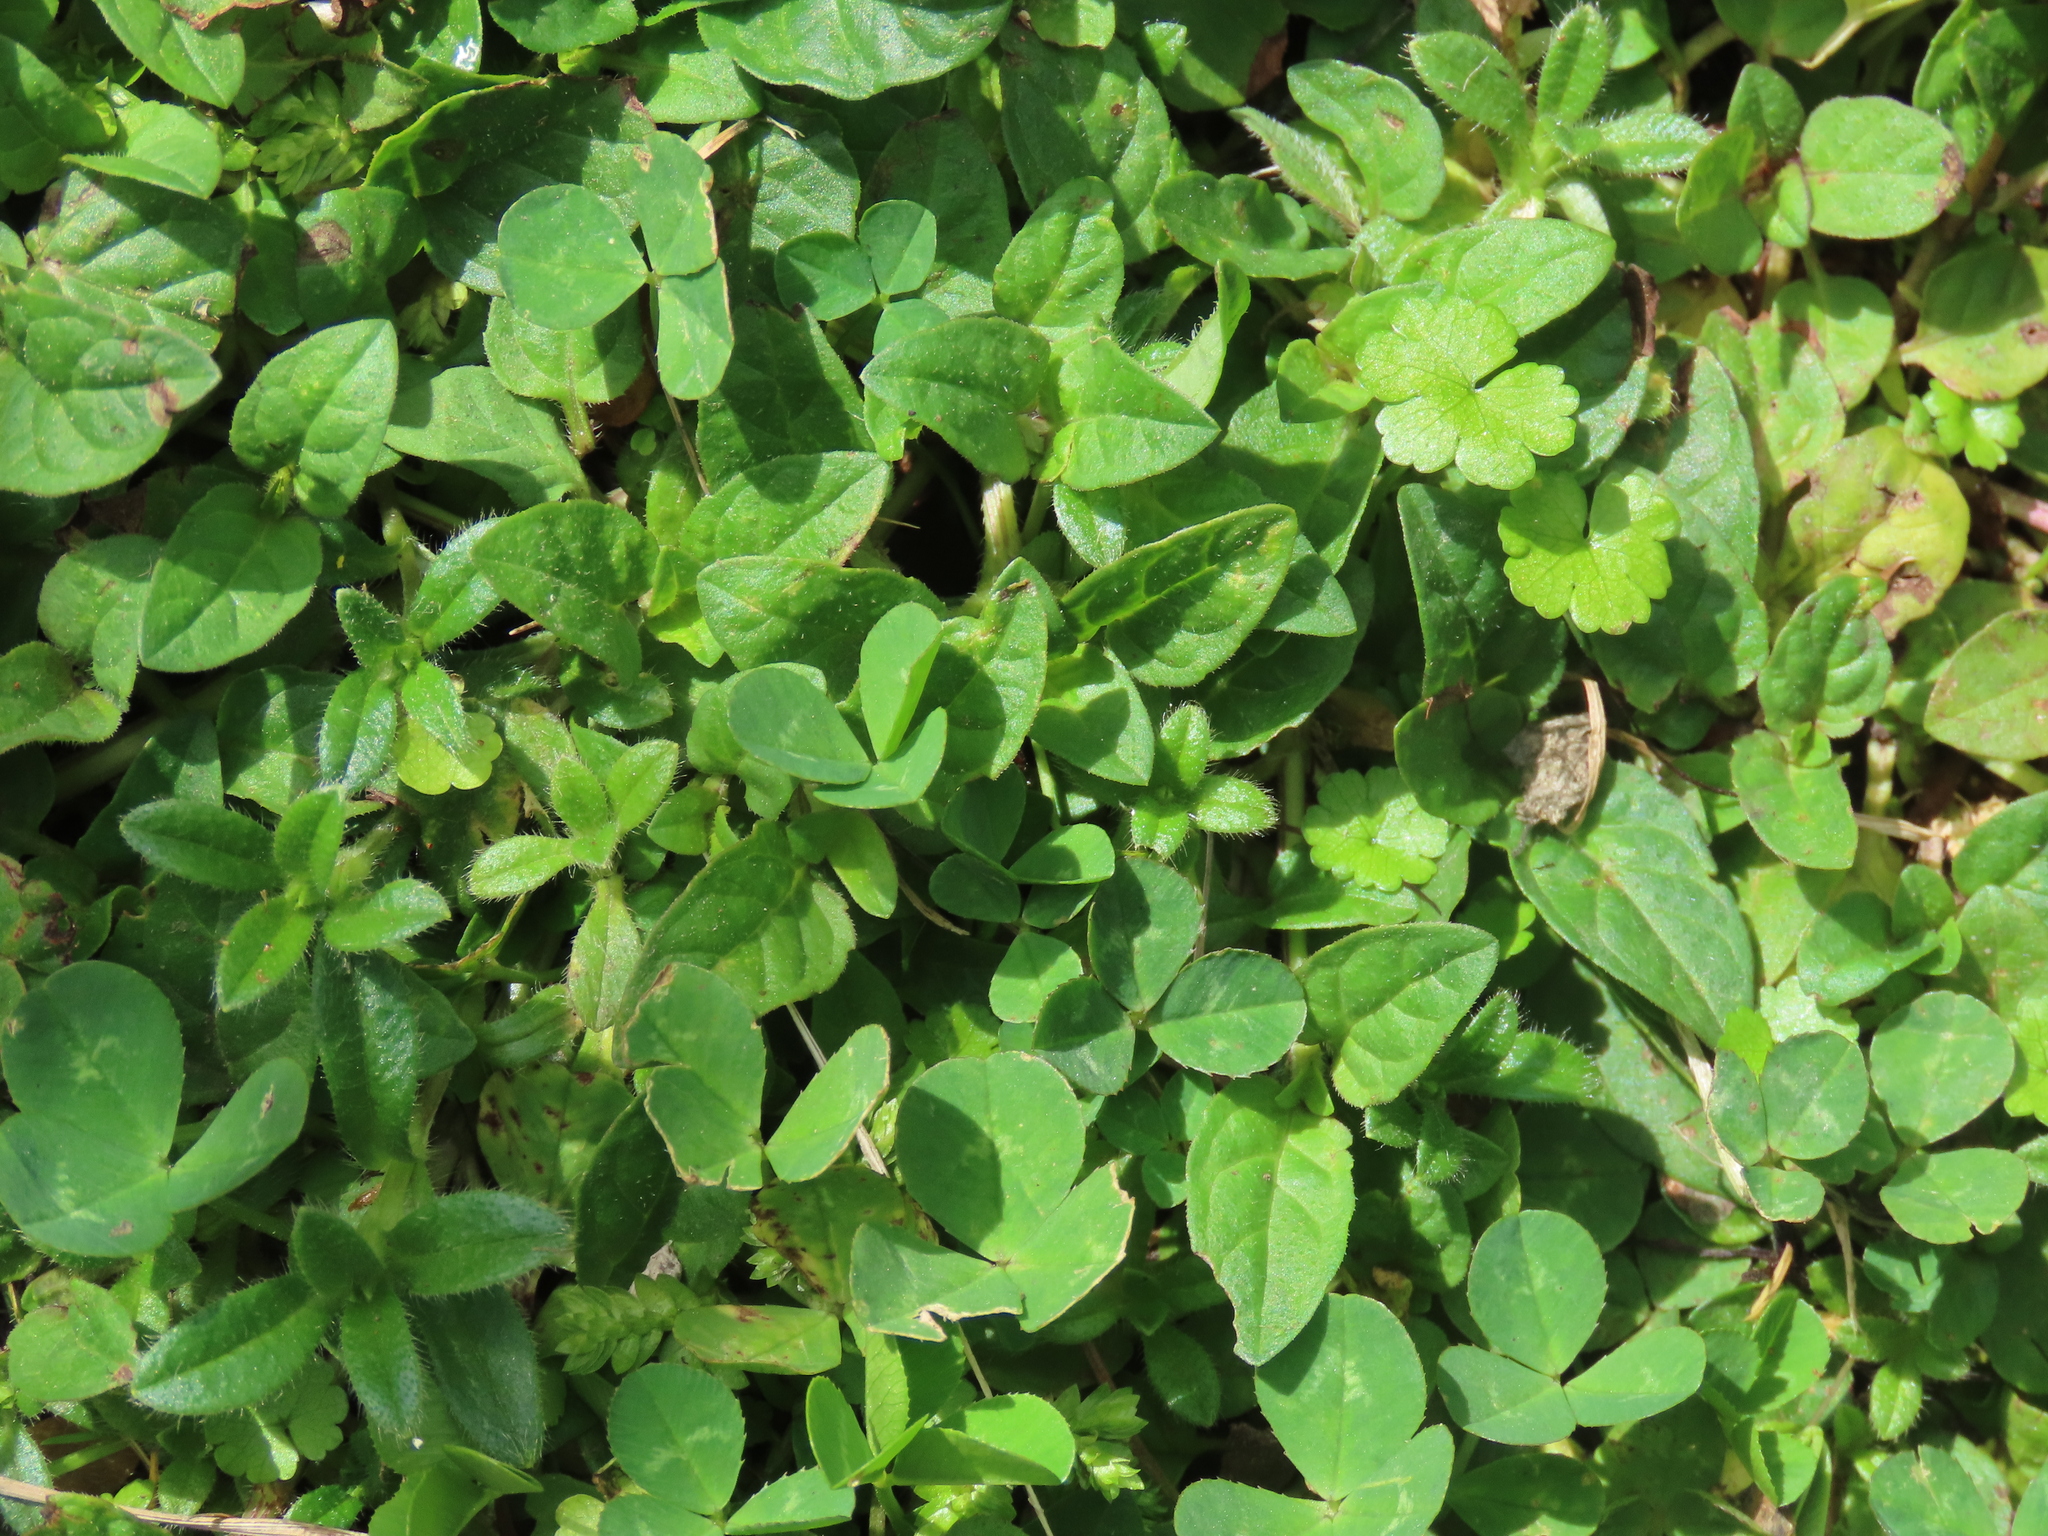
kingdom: Plantae
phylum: Tracheophyta
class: Magnoliopsida
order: Fabales
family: Fabaceae
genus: Trifolium
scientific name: Trifolium repens
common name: White clover
